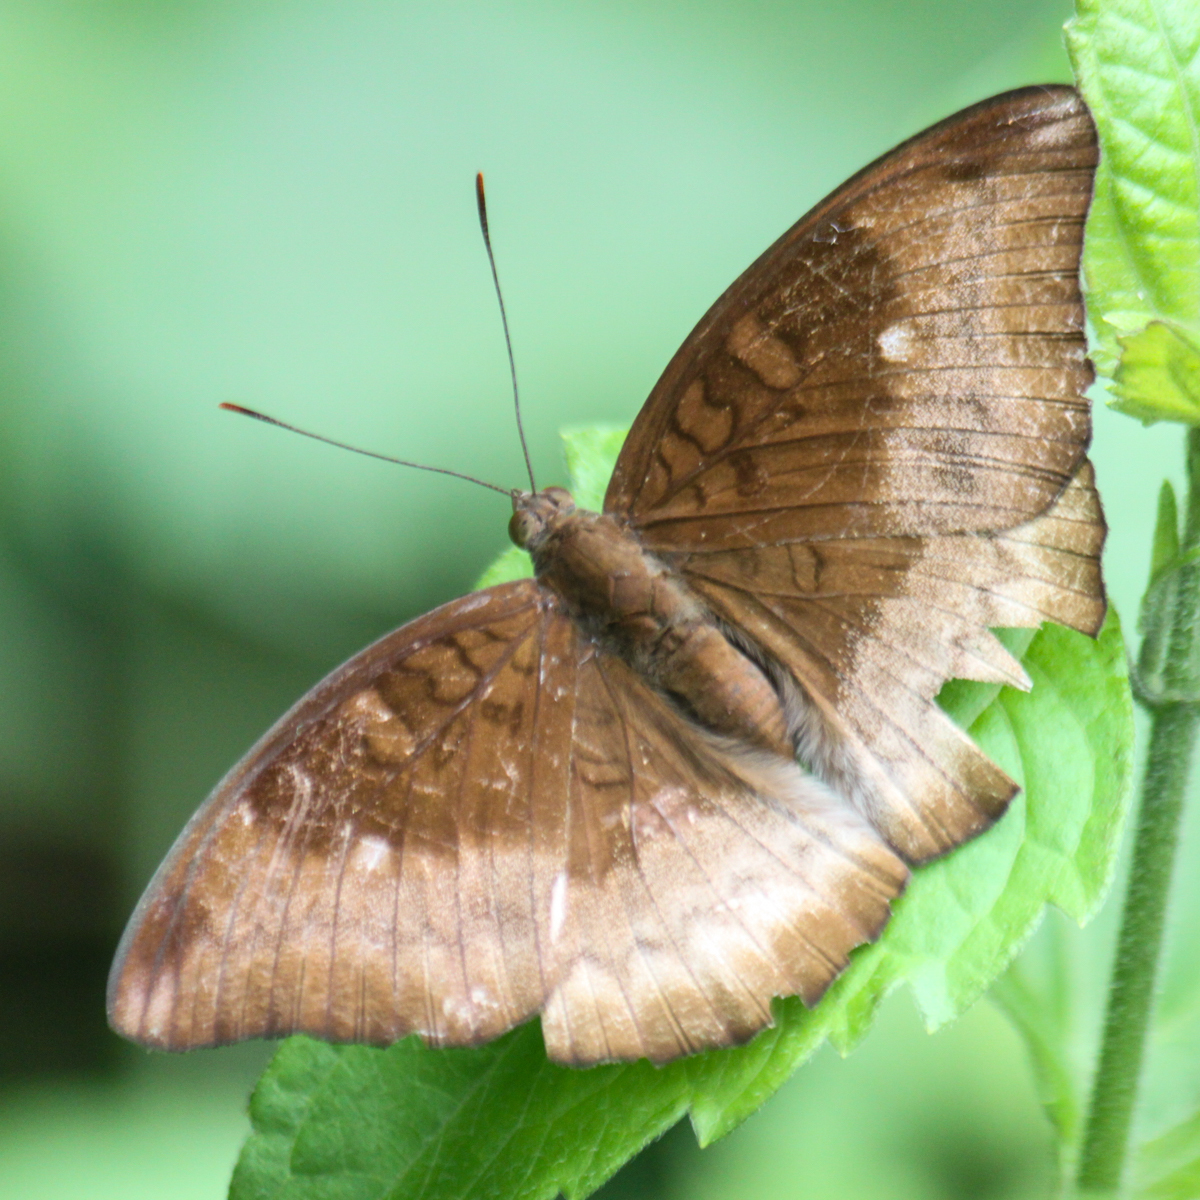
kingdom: Animalia
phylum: Arthropoda
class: Insecta
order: Lepidoptera
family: Nymphalidae
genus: Euthalia
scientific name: Euthalia monina
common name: Powdered baron
